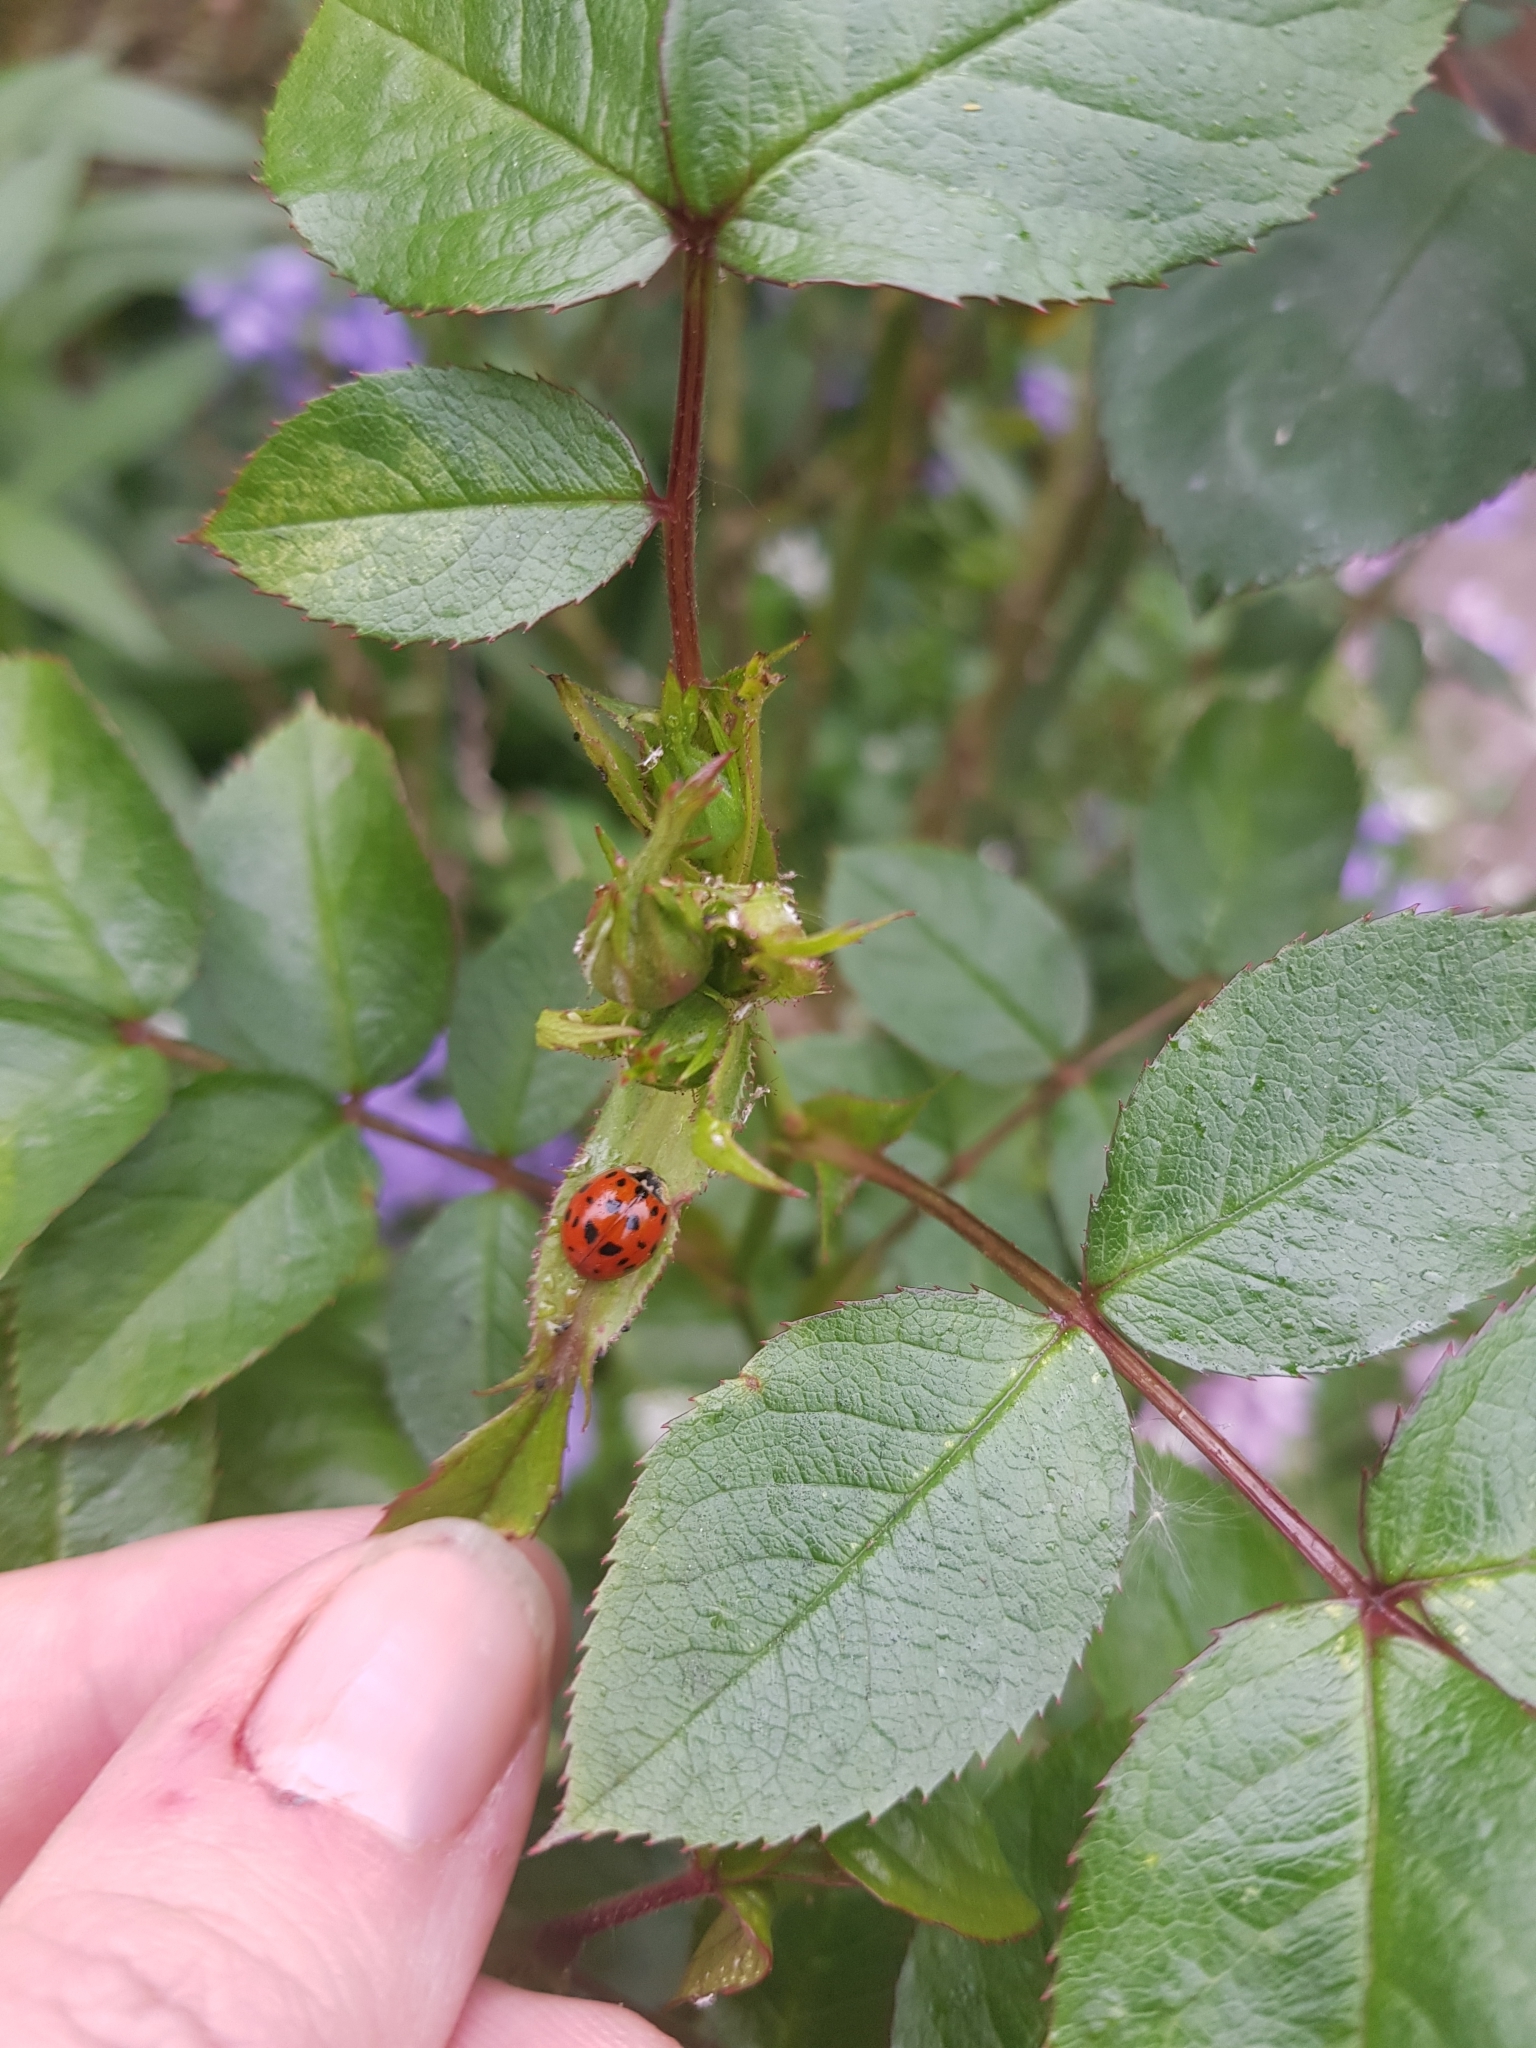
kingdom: Animalia
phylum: Arthropoda
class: Insecta
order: Coleoptera
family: Coccinellidae
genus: Harmonia
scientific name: Harmonia axyridis
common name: Harlequin ladybird
